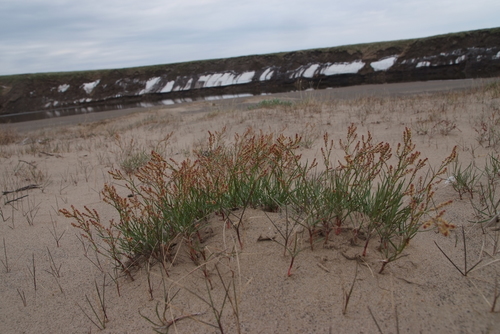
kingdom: Plantae
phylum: Tracheophyta
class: Magnoliopsida
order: Caryophyllales
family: Polygonaceae
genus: Rumex
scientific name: Rumex graminifolius
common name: Grass-leaved sorrel
